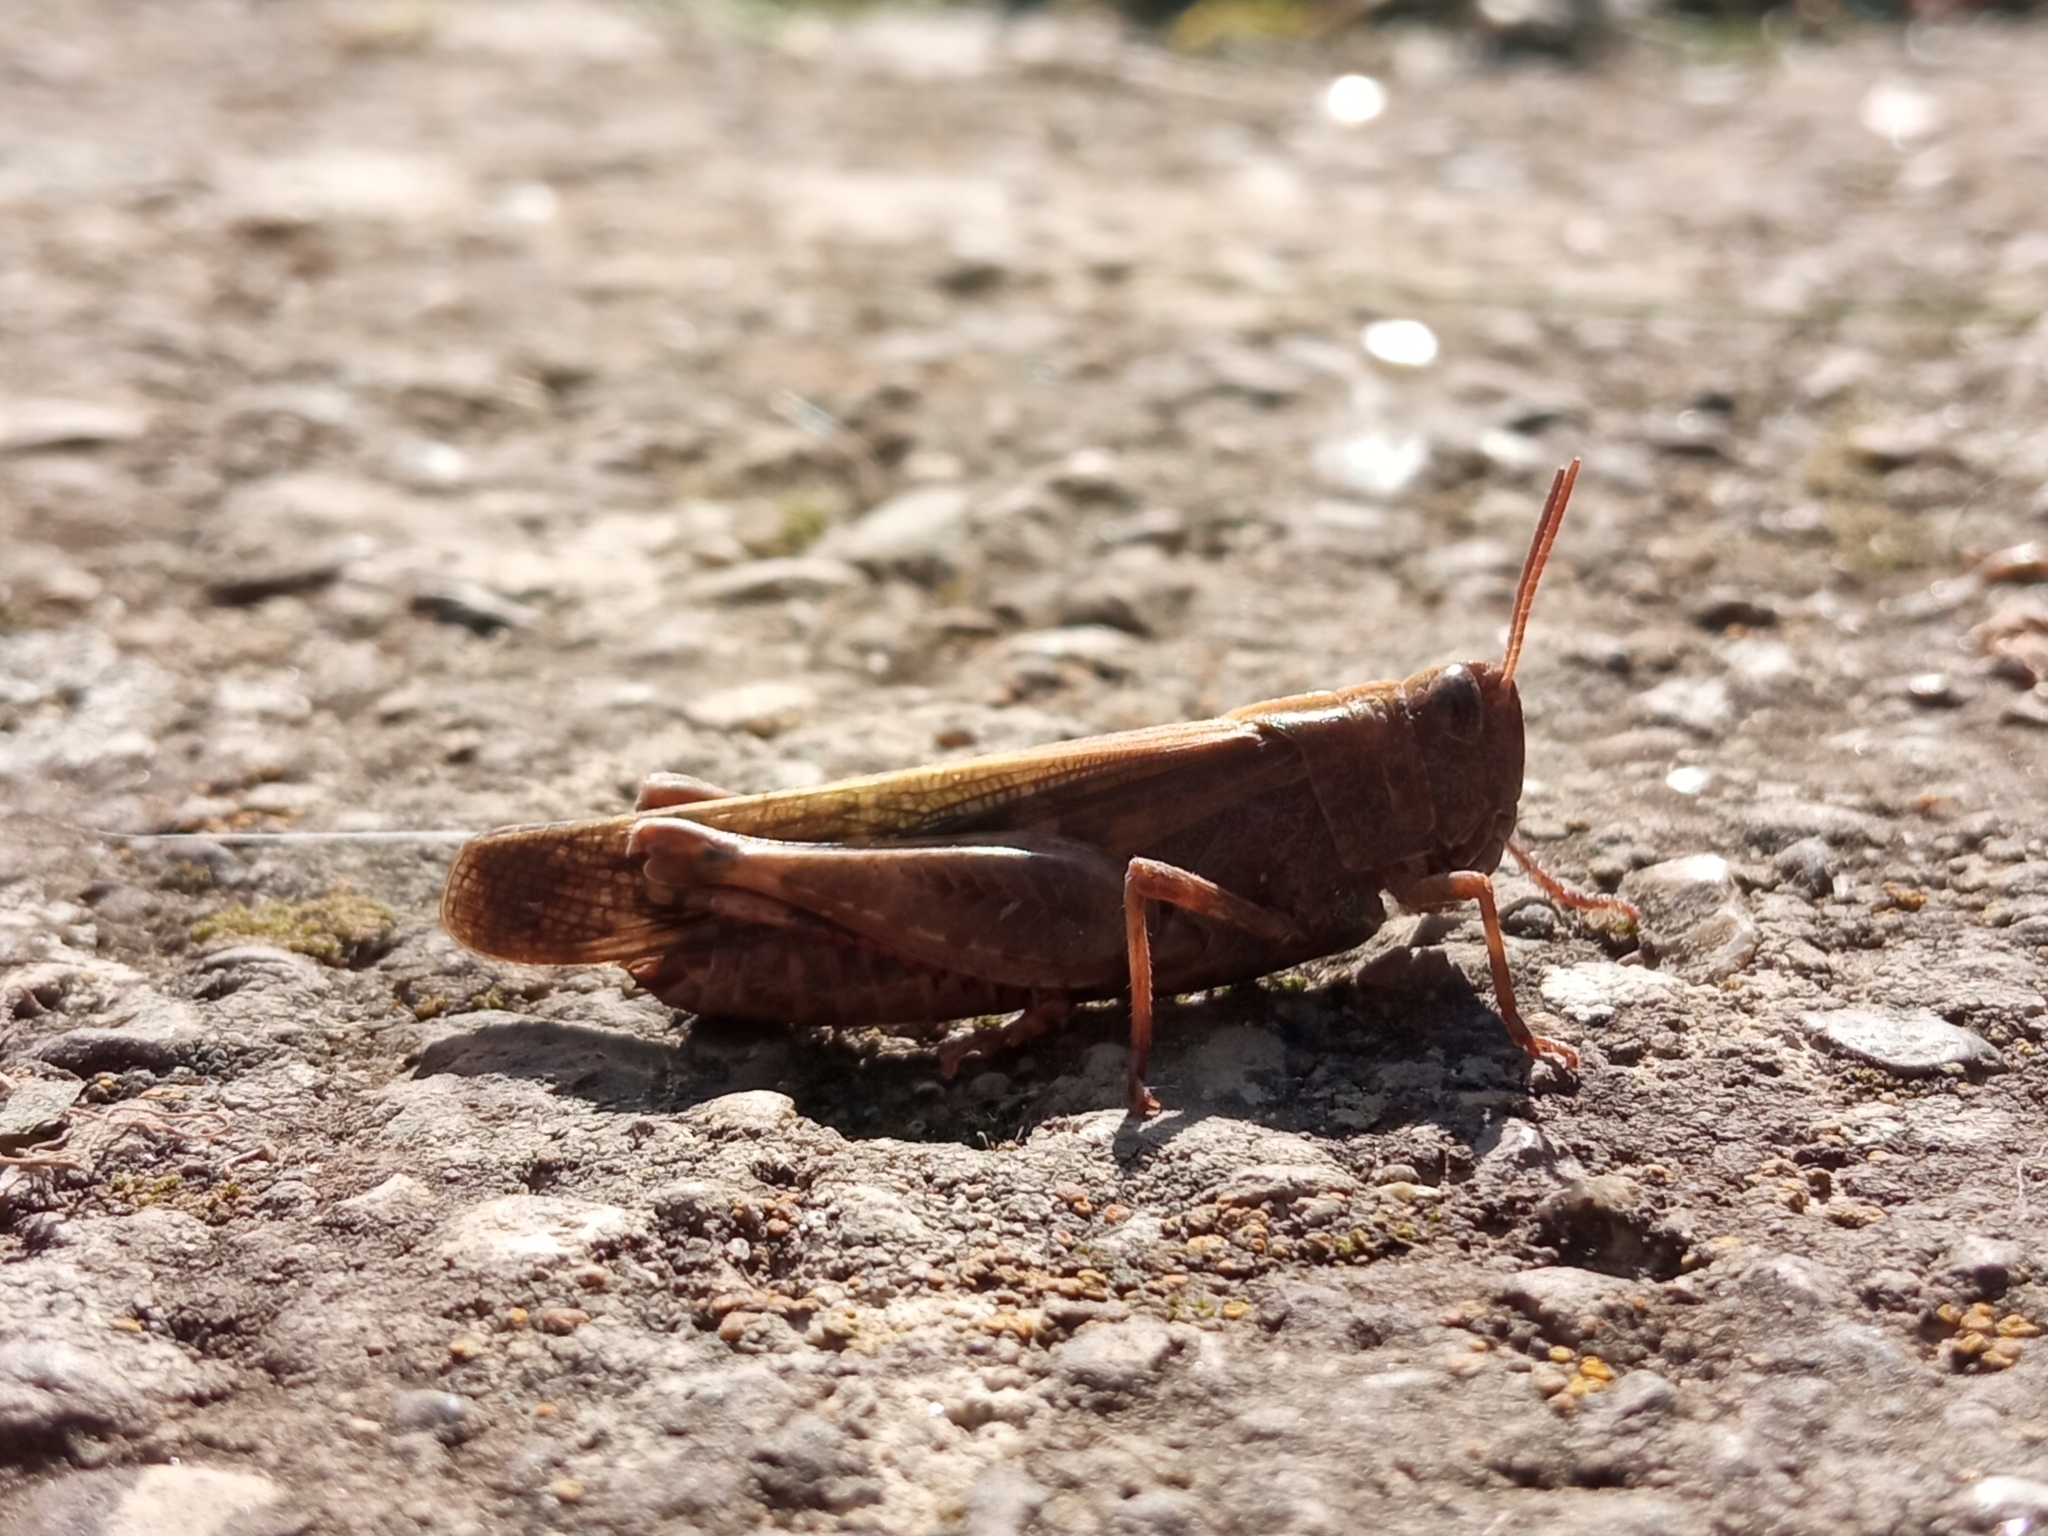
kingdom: Animalia
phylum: Arthropoda
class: Insecta
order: Orthoptera
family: Acrididae
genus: Aiolopus
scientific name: Aiolopus strepens
